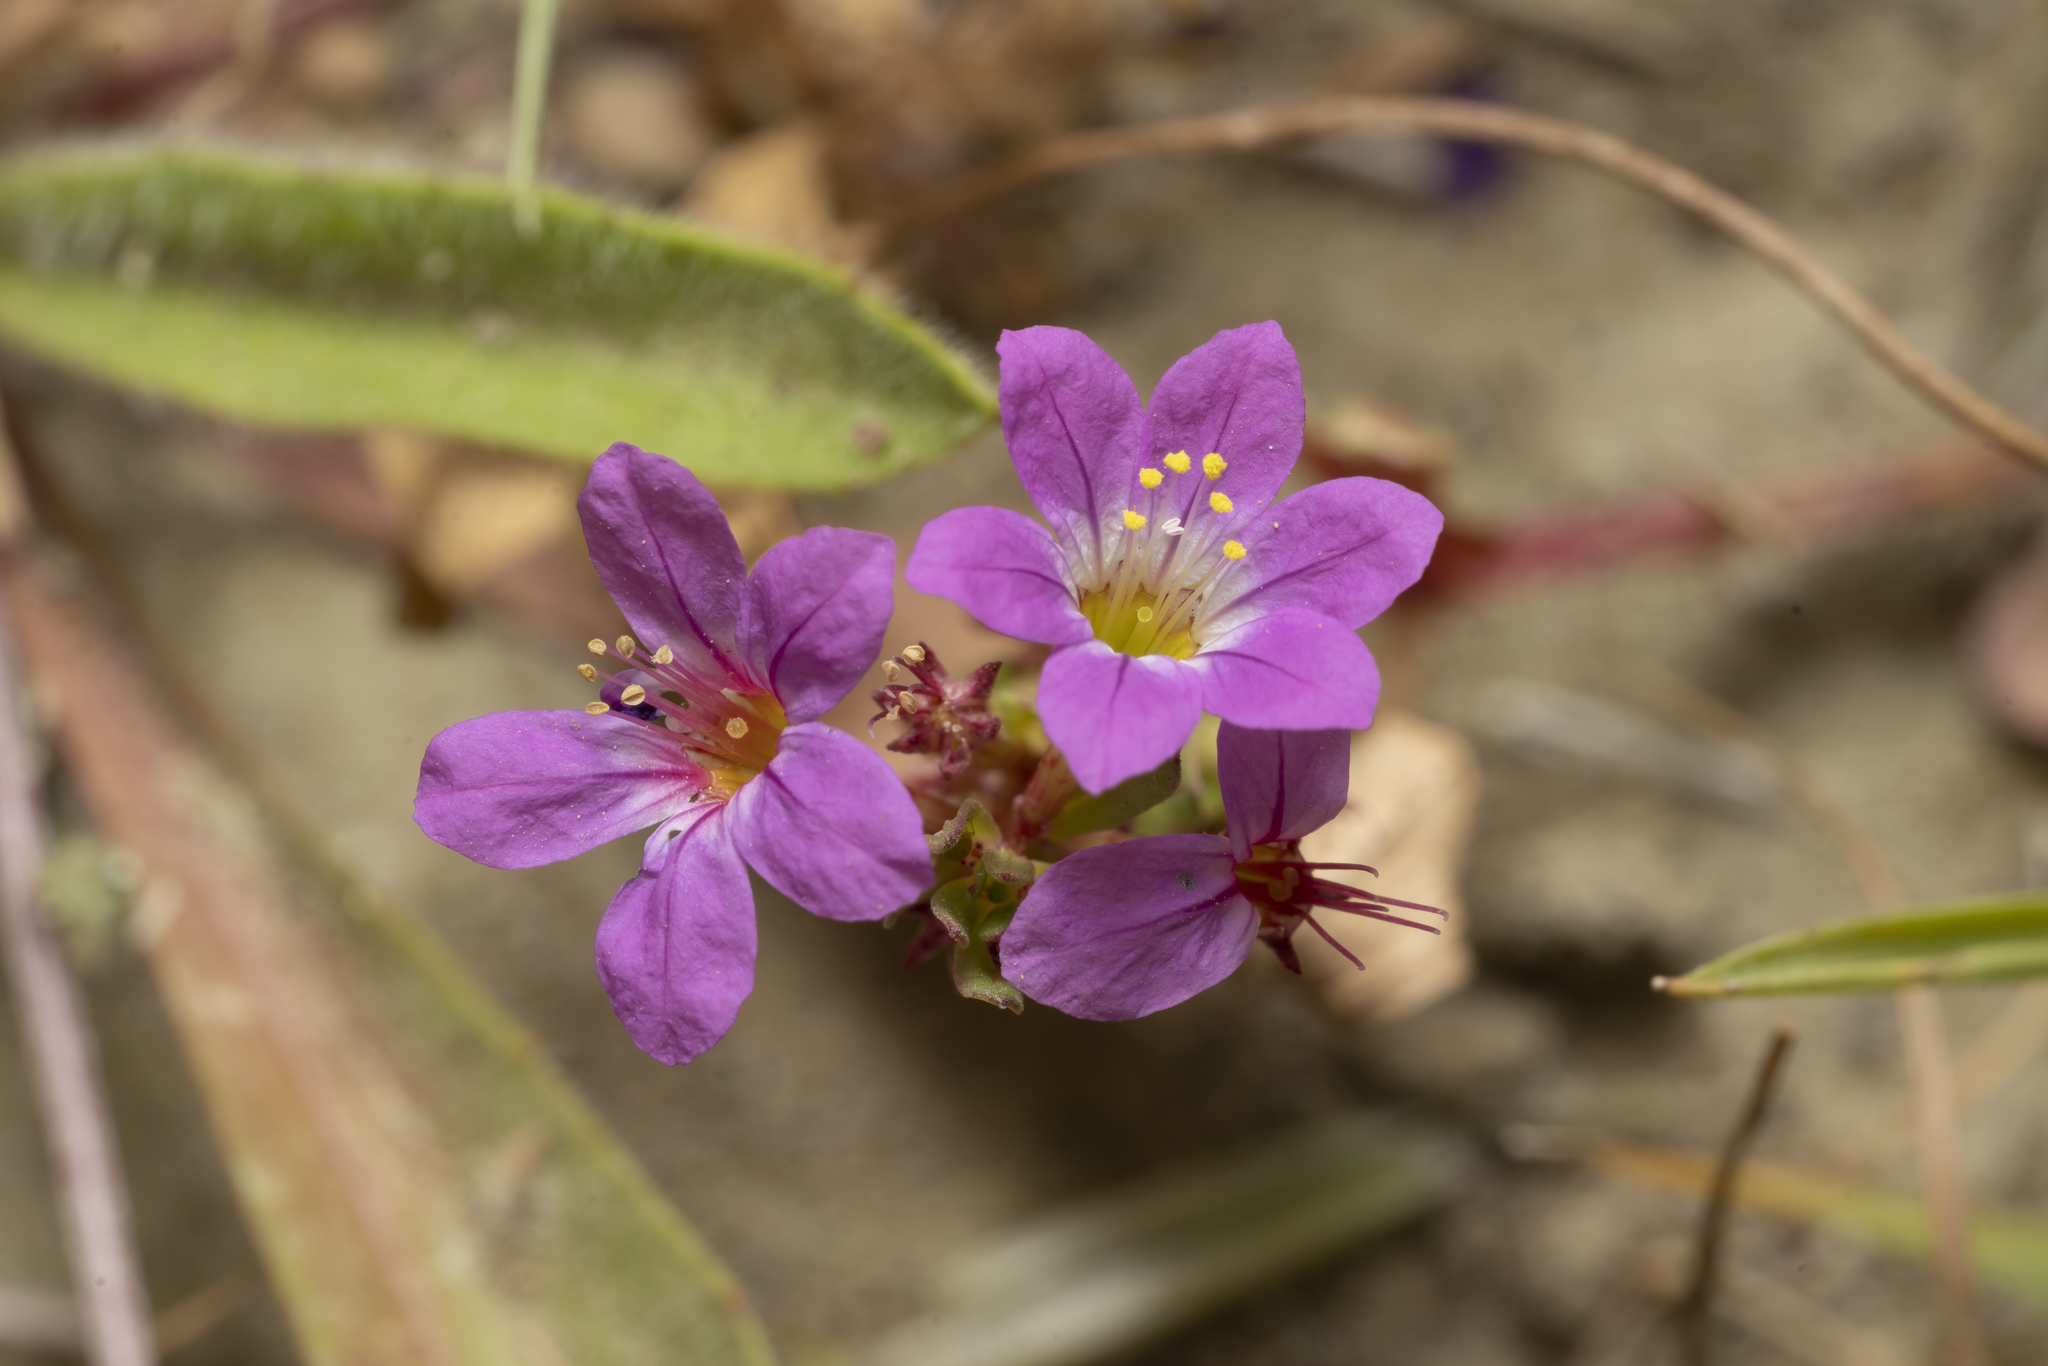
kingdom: Plantae
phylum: Tracheophyta
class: Magnoliopsida
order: Myrtales
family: Lythraceae
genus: Lythrum
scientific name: Lythrum junceum
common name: False grass-poly
